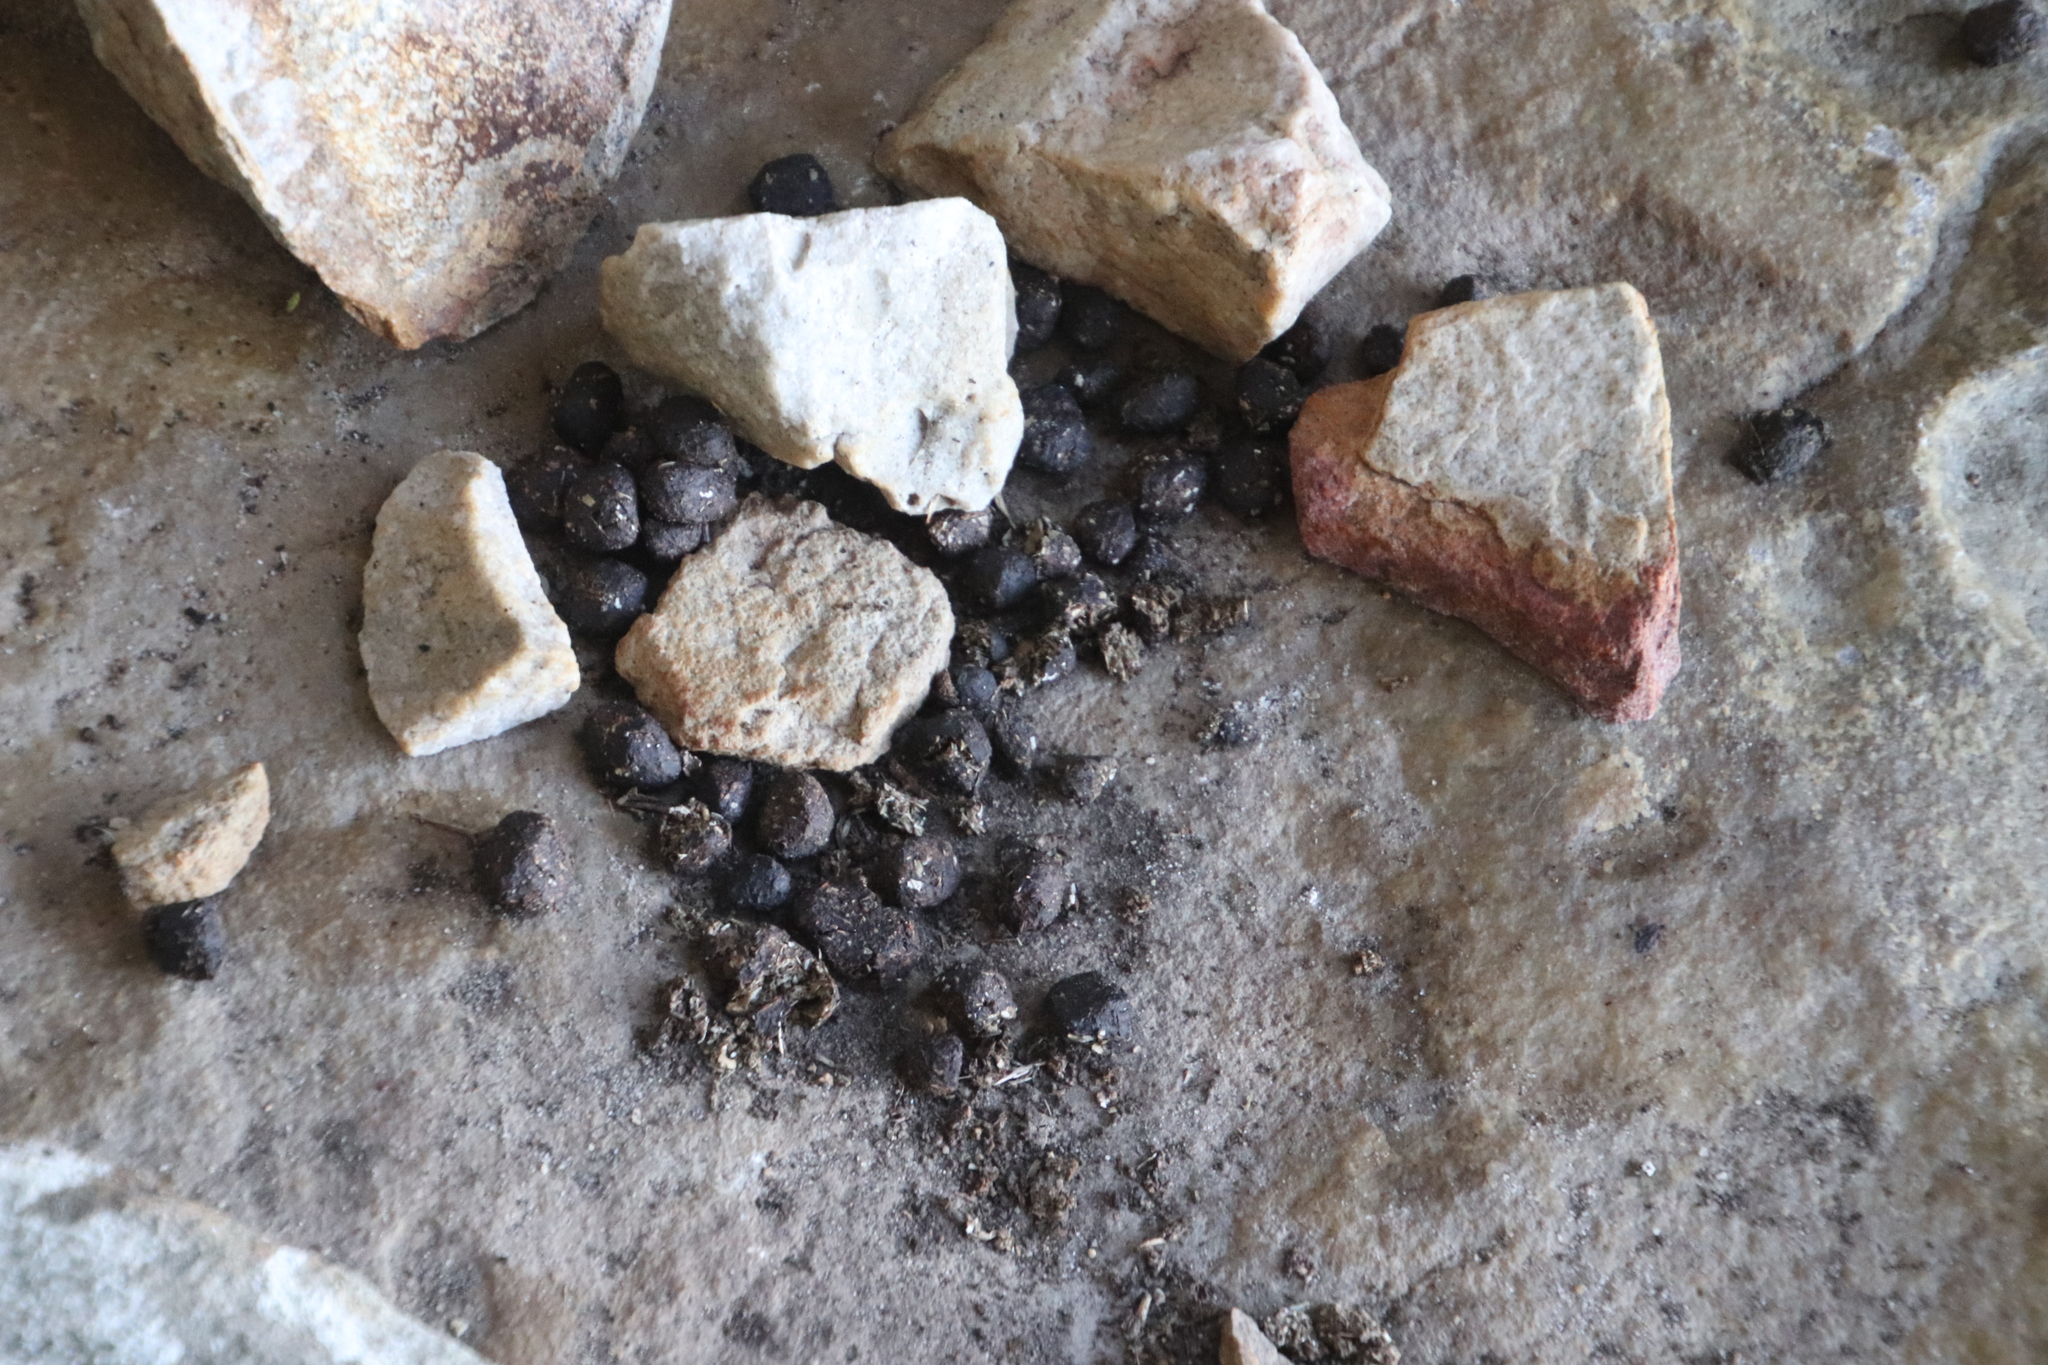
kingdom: Animalia
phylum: Chordata
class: Mammalia
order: Hyracoidea
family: Procaviidae
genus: Procavia
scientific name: Procavia capensis
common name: Rock hyrax
